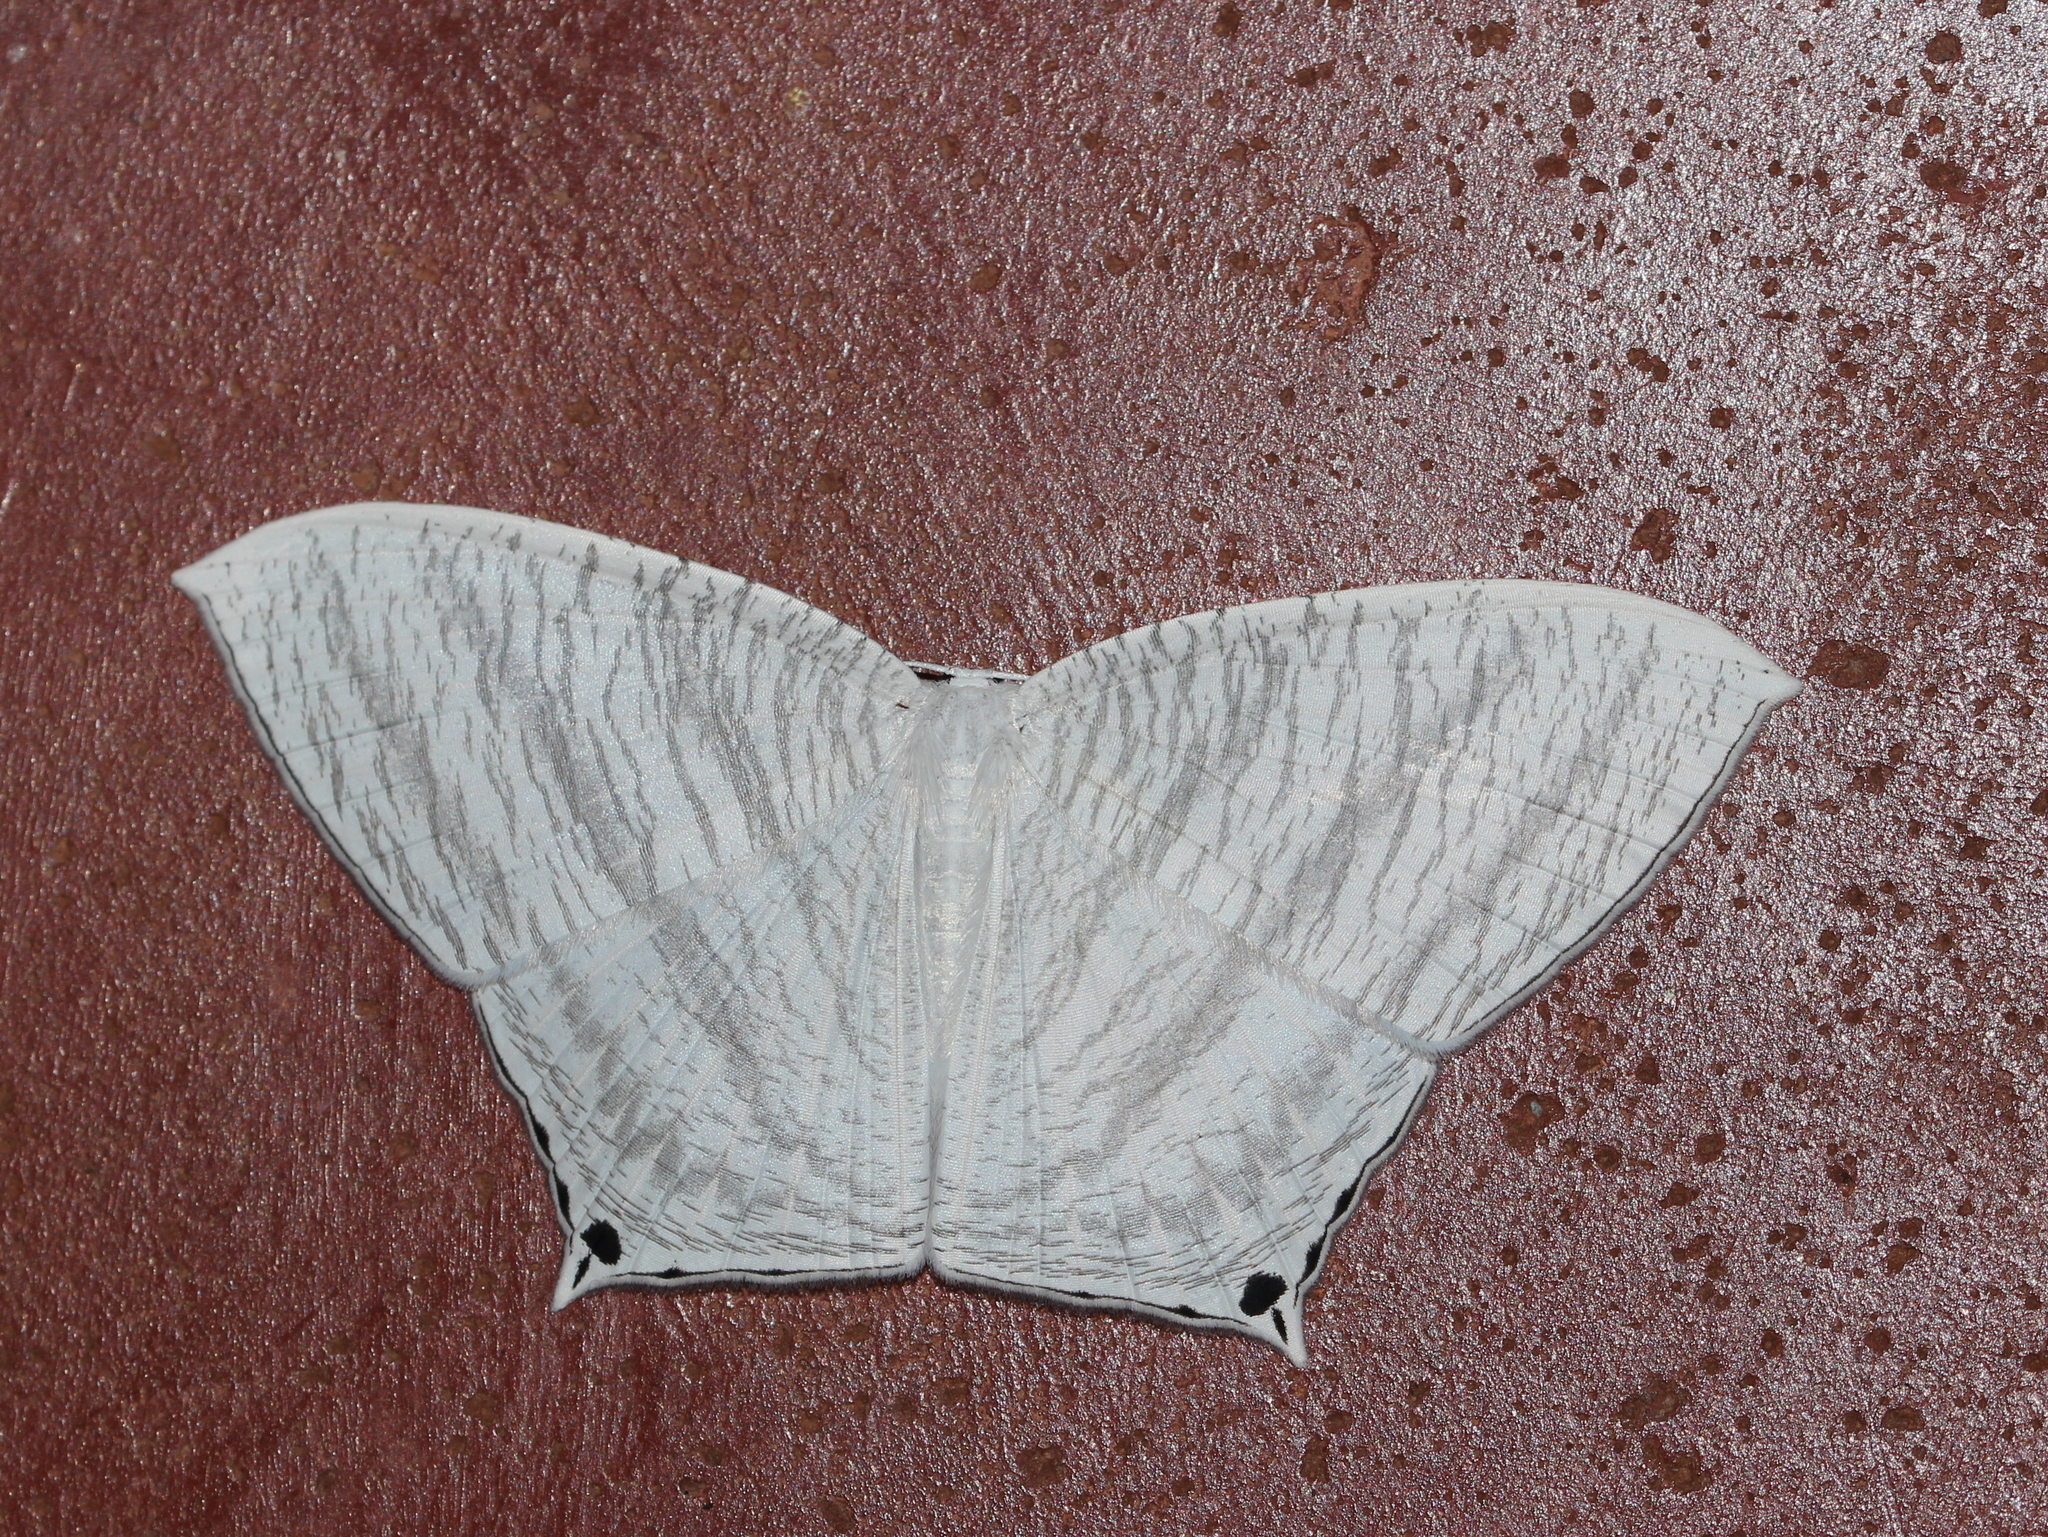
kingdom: Animalia
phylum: Arthropoda
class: Insecta
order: Lepidoptera
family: Uraniidae
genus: Micronia
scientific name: Micronia aculeata
